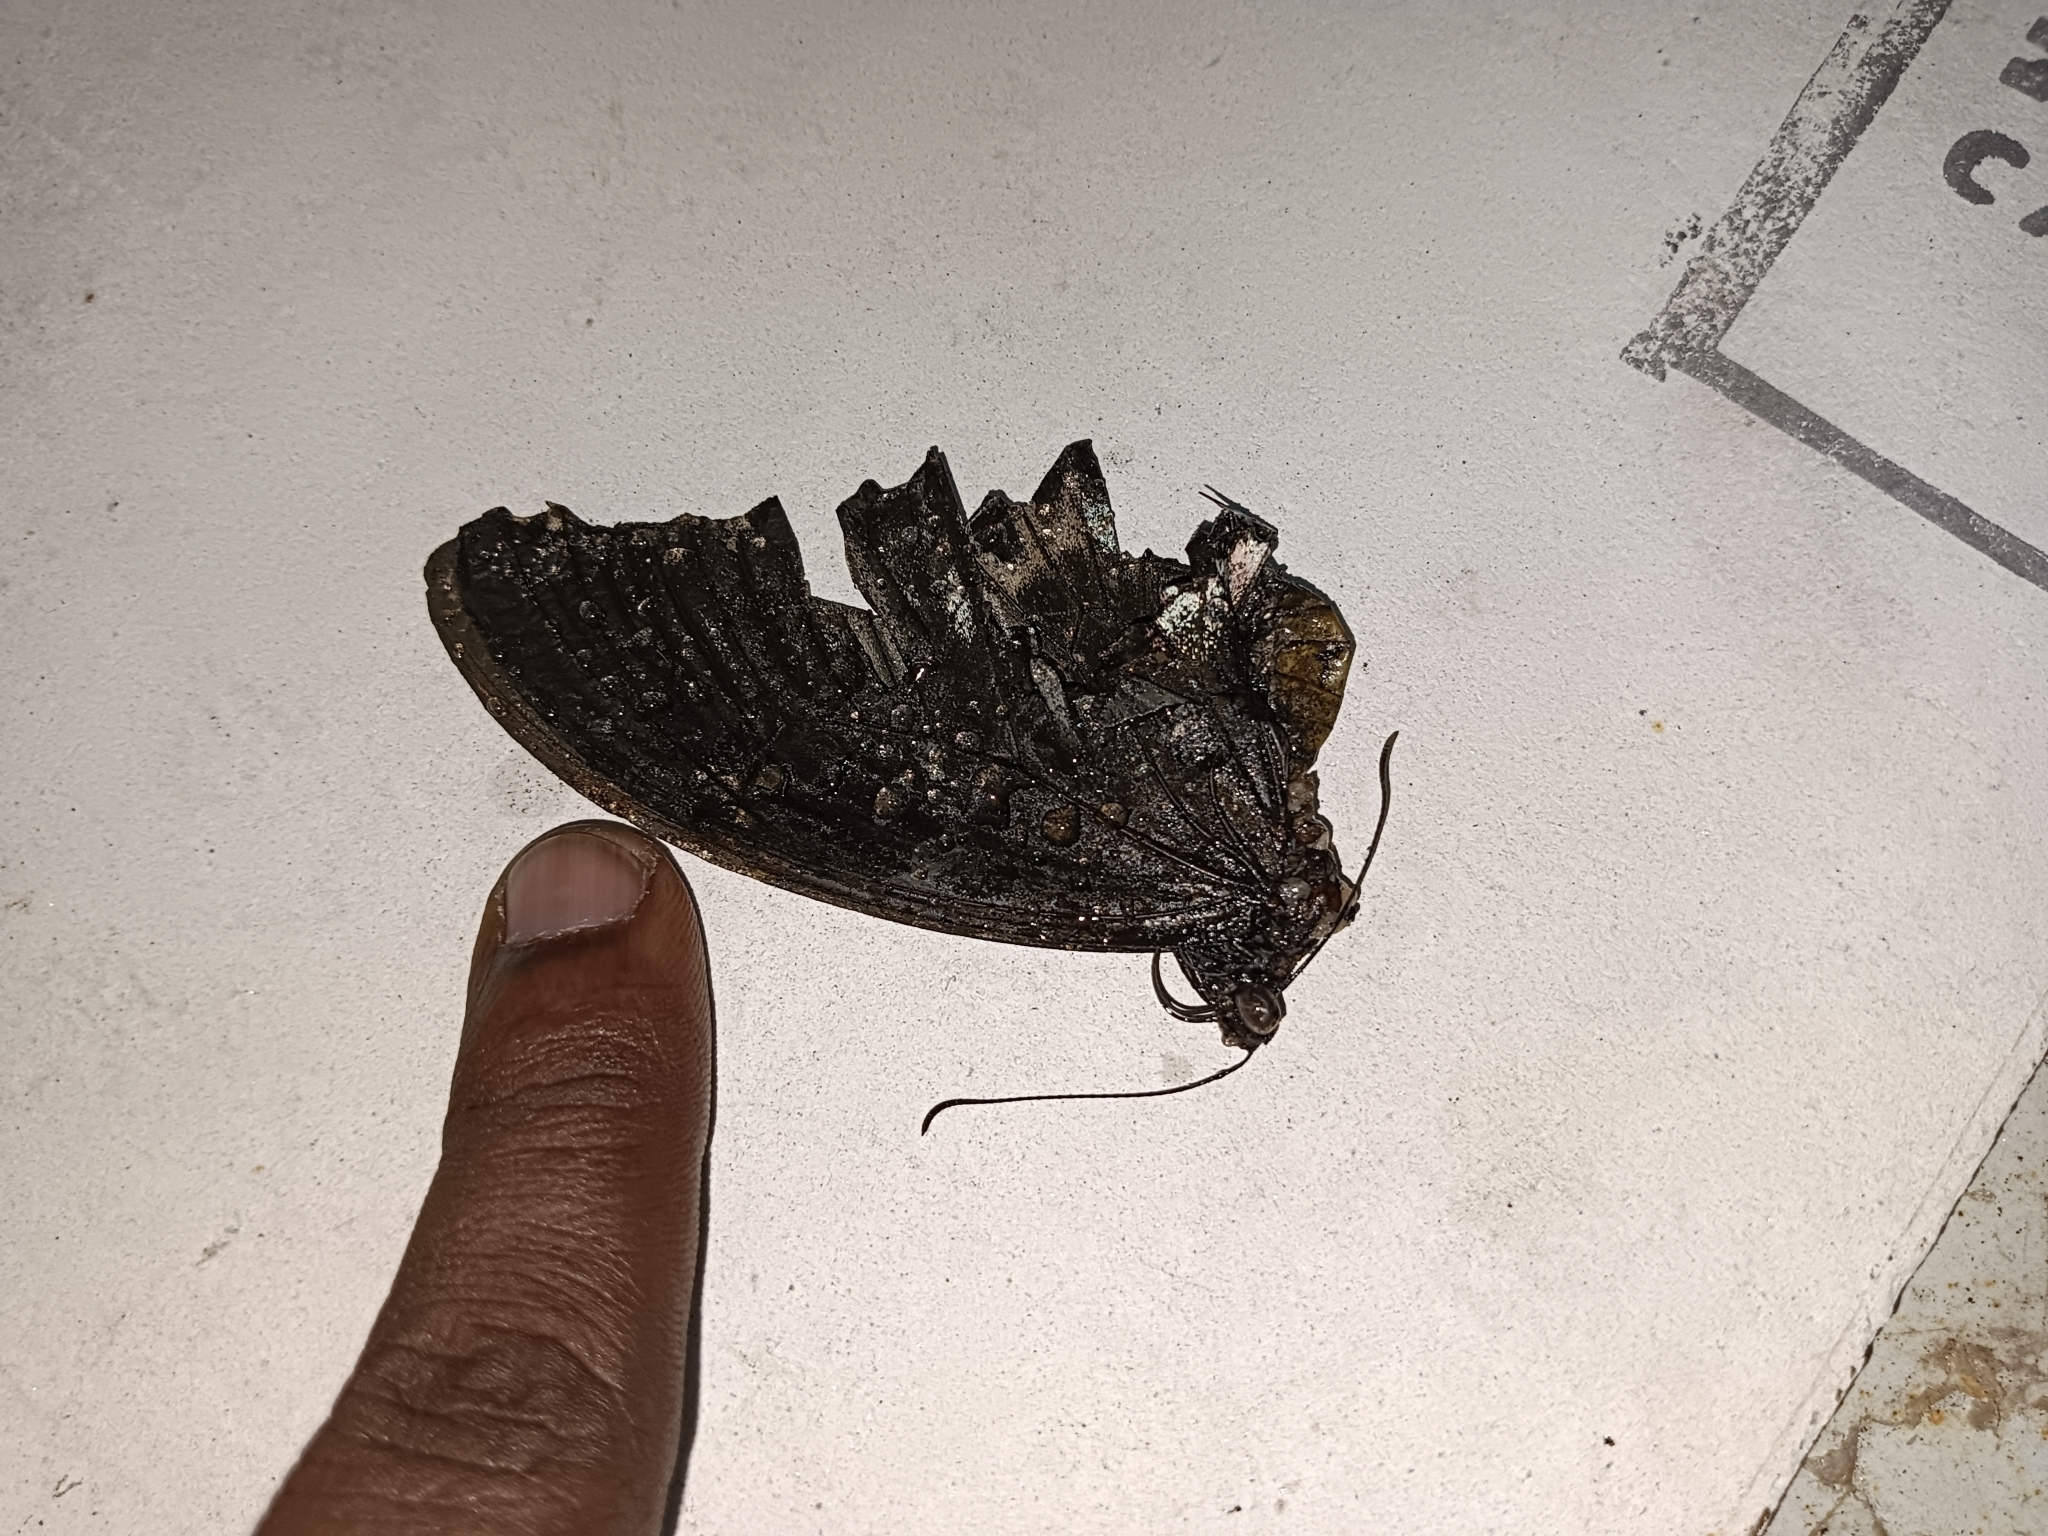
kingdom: Animalia
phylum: Arthropoda
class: Insecta
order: Lepidoptera
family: Papilionidae
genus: Papilio
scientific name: Papilio memnon
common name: Great mormon
